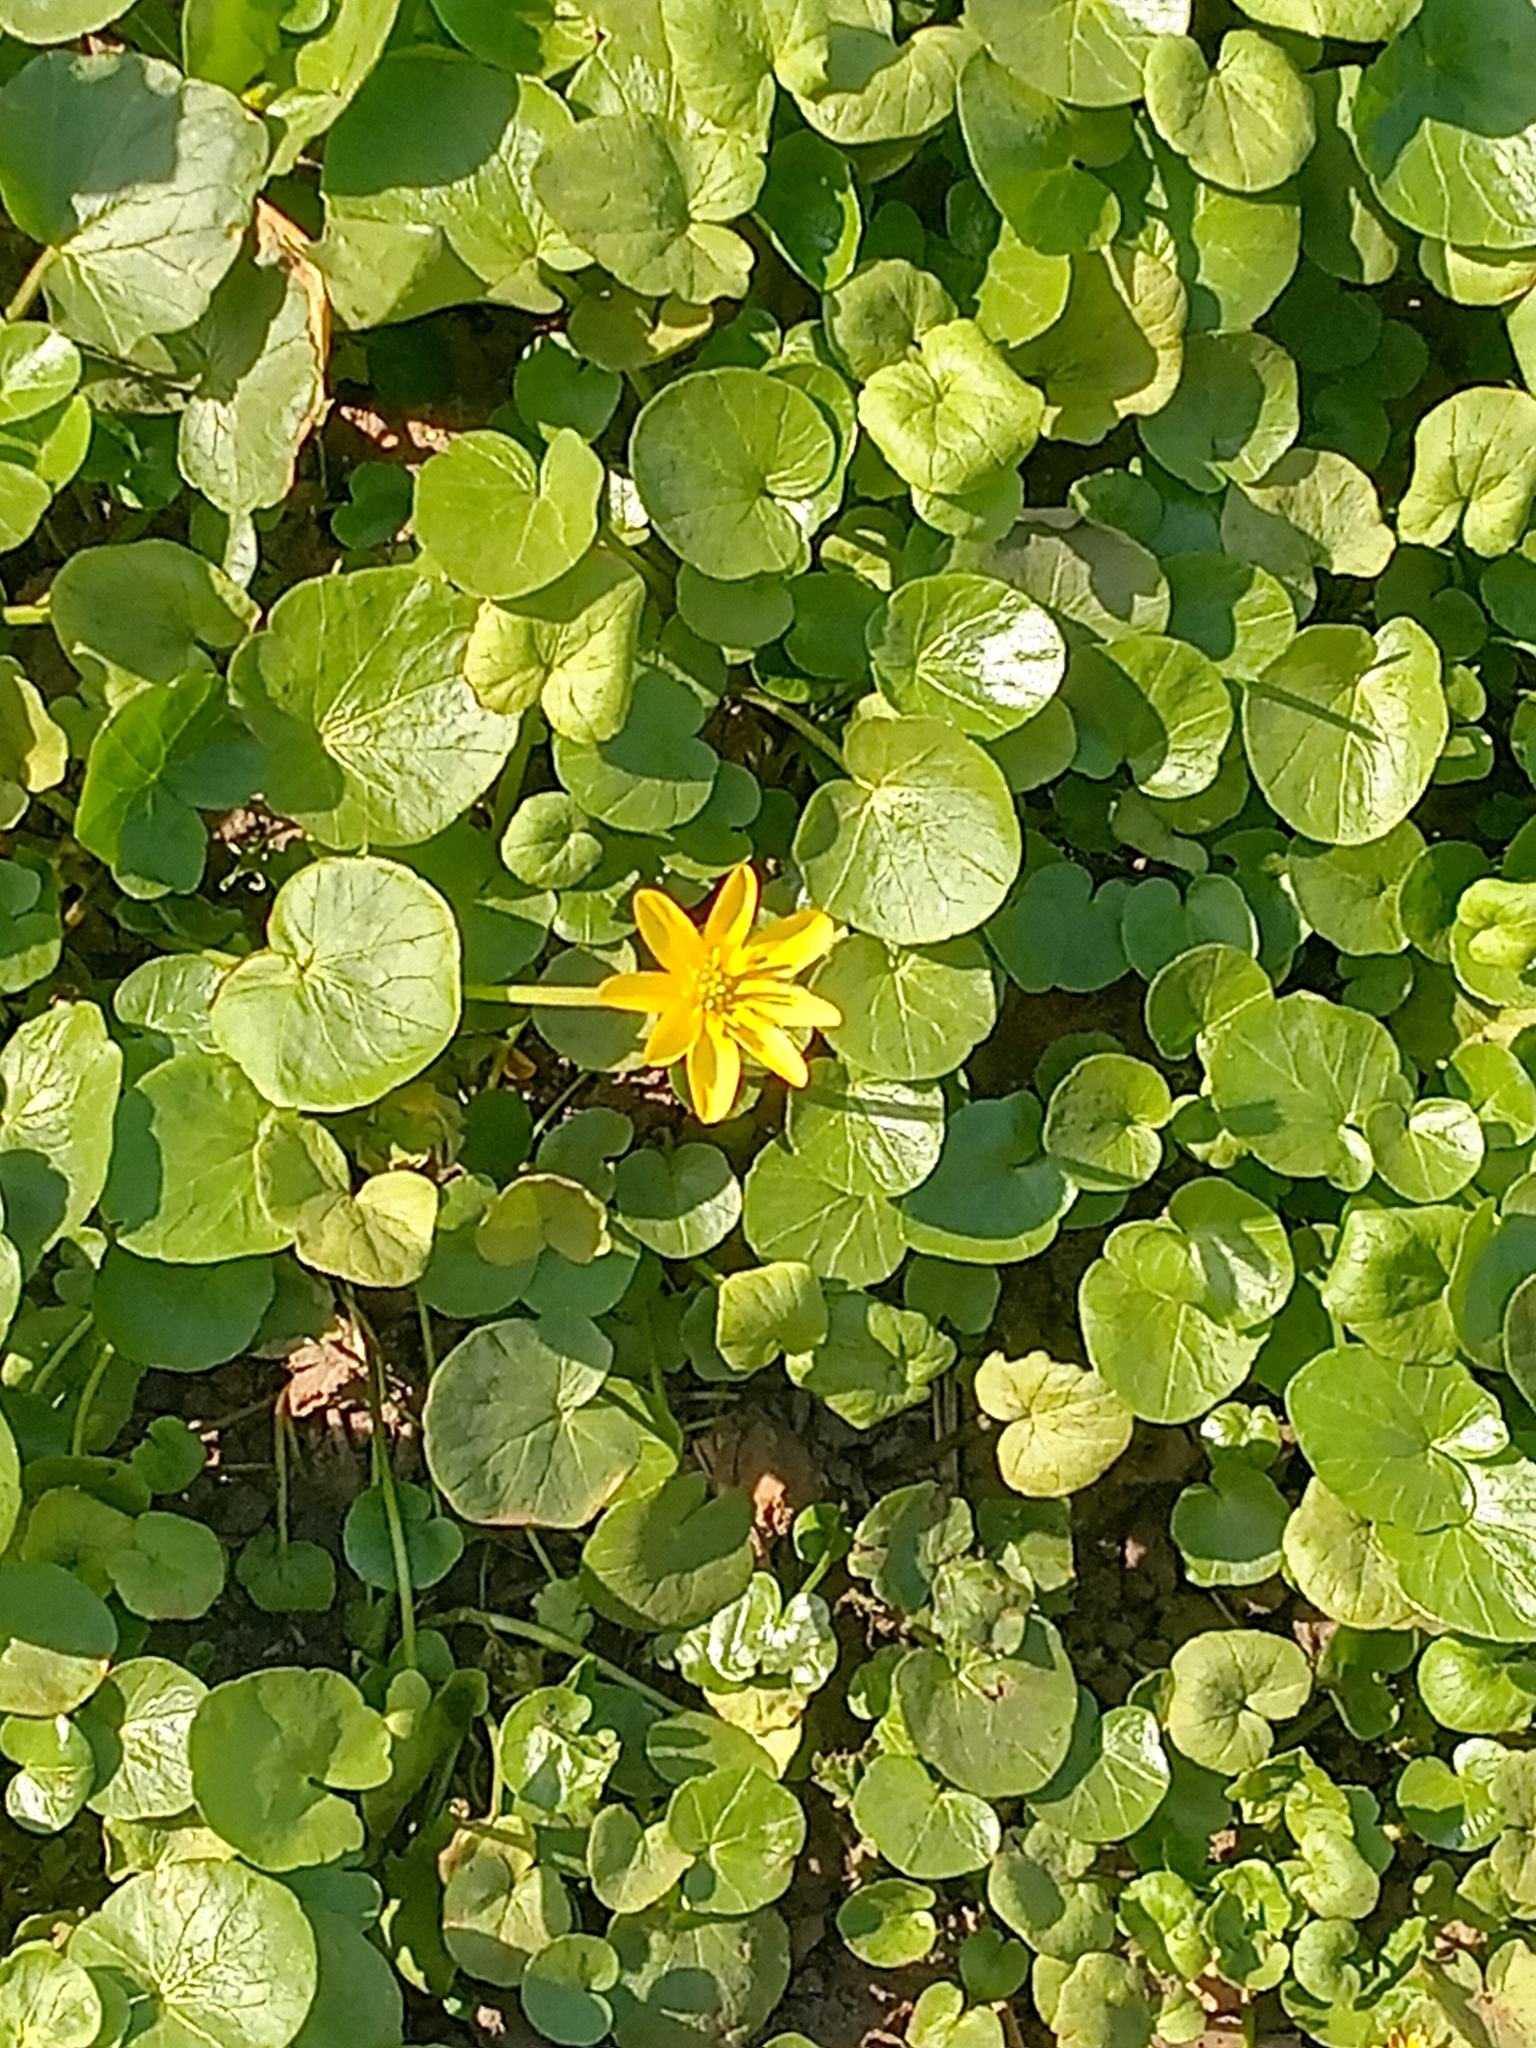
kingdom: Plantae
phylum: Tracheophyta
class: Magnoliopsida
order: Ranunculales
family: Ranunculaceae
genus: Ficaria
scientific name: Ficaria verna
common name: Lesser celandine
